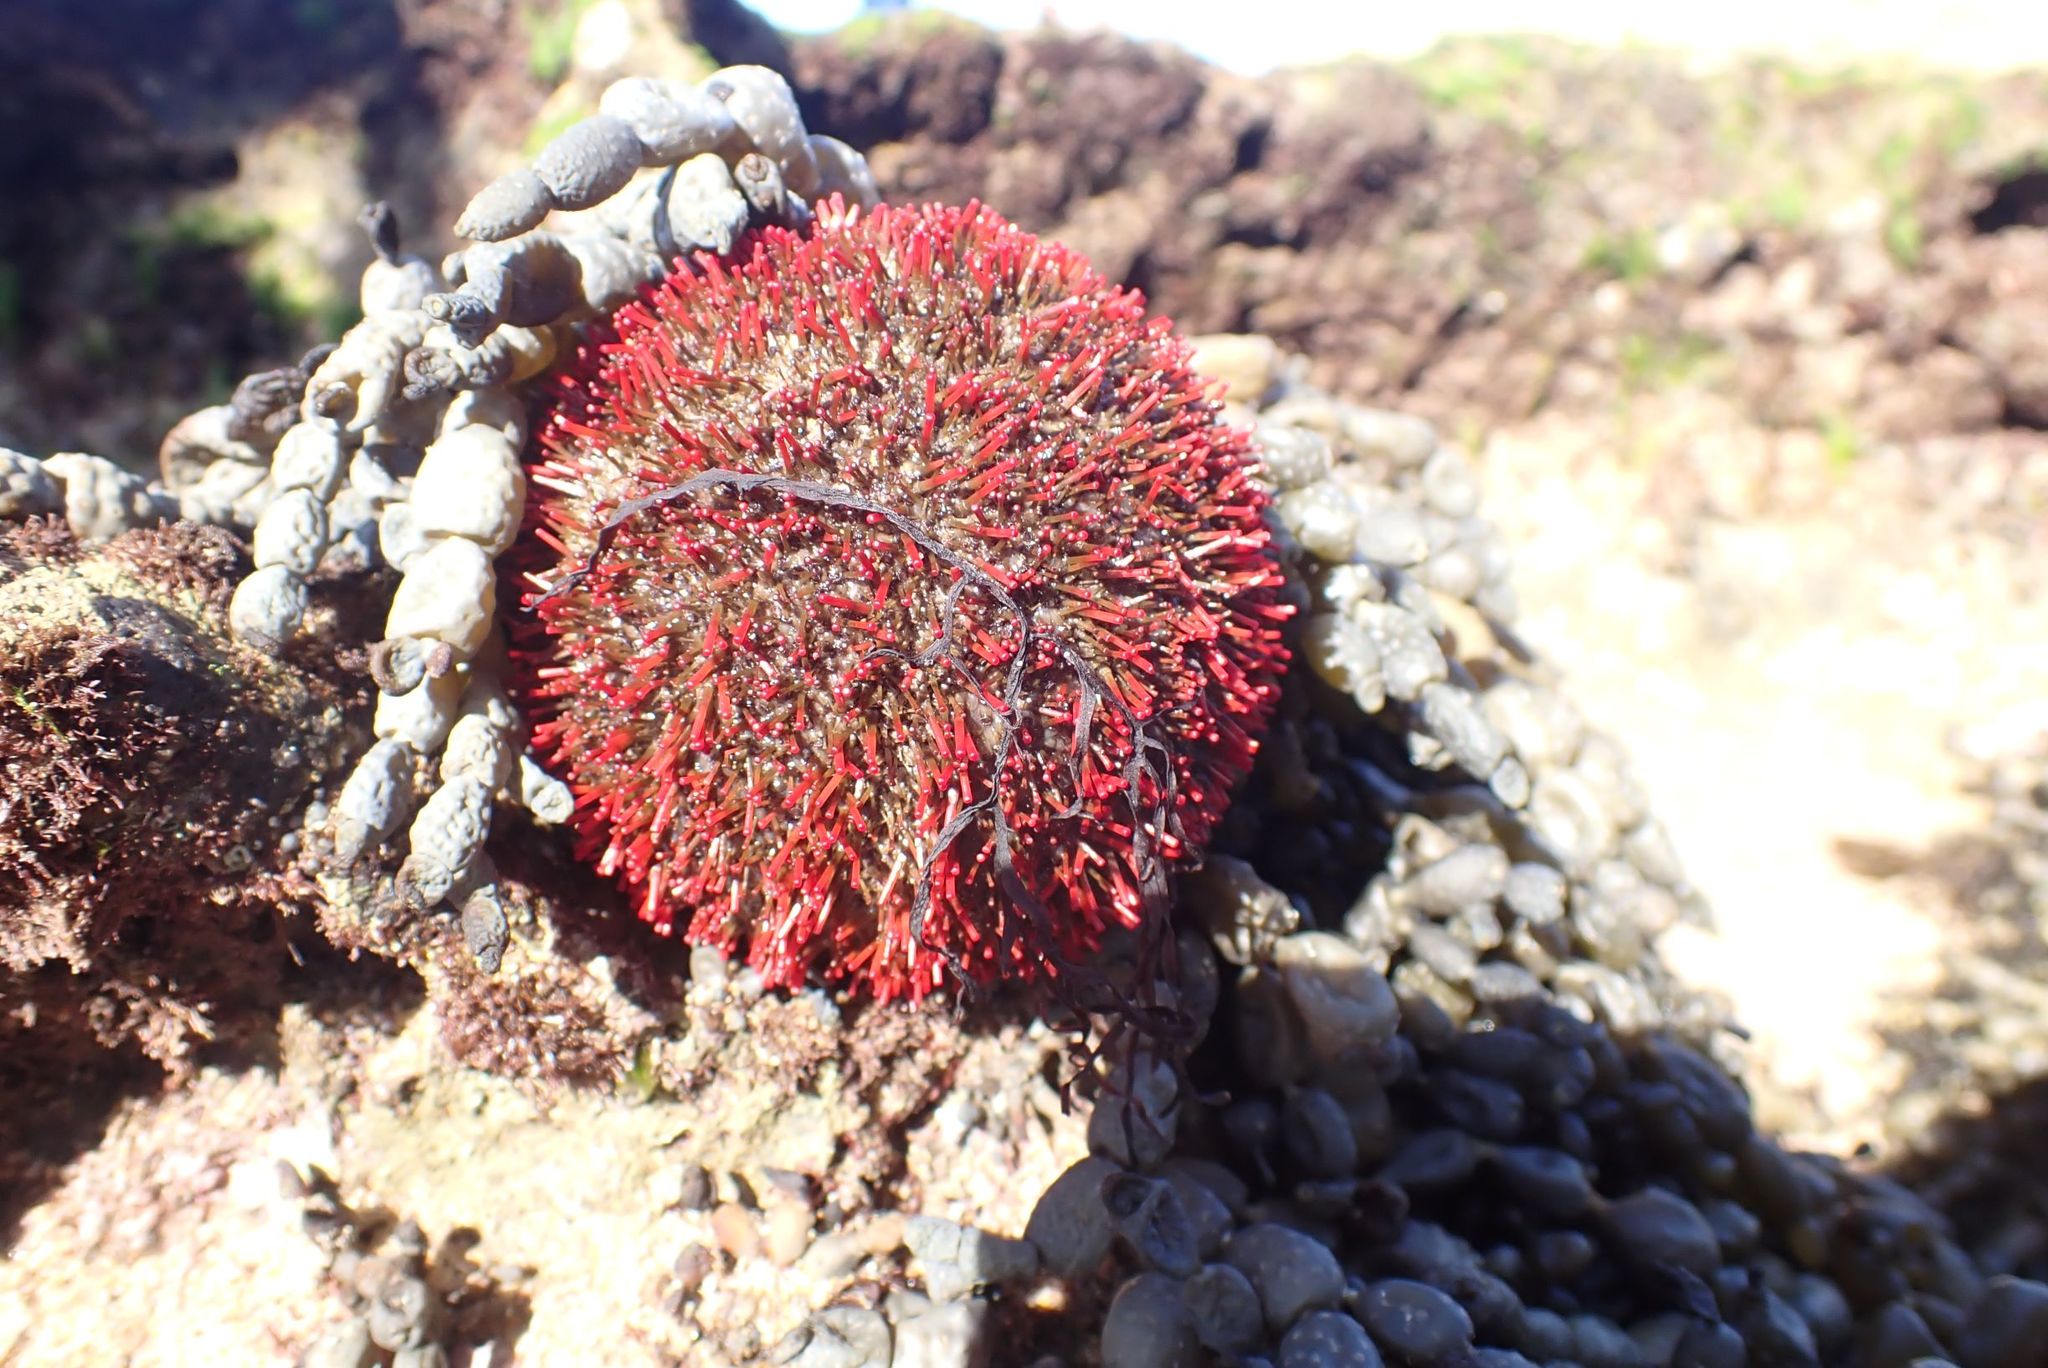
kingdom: Animalia
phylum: Echinodermata
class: Echinoidea
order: Camarodonta
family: Temnopleuridae
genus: Holopneustes
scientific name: Holopneustes porosissimus
